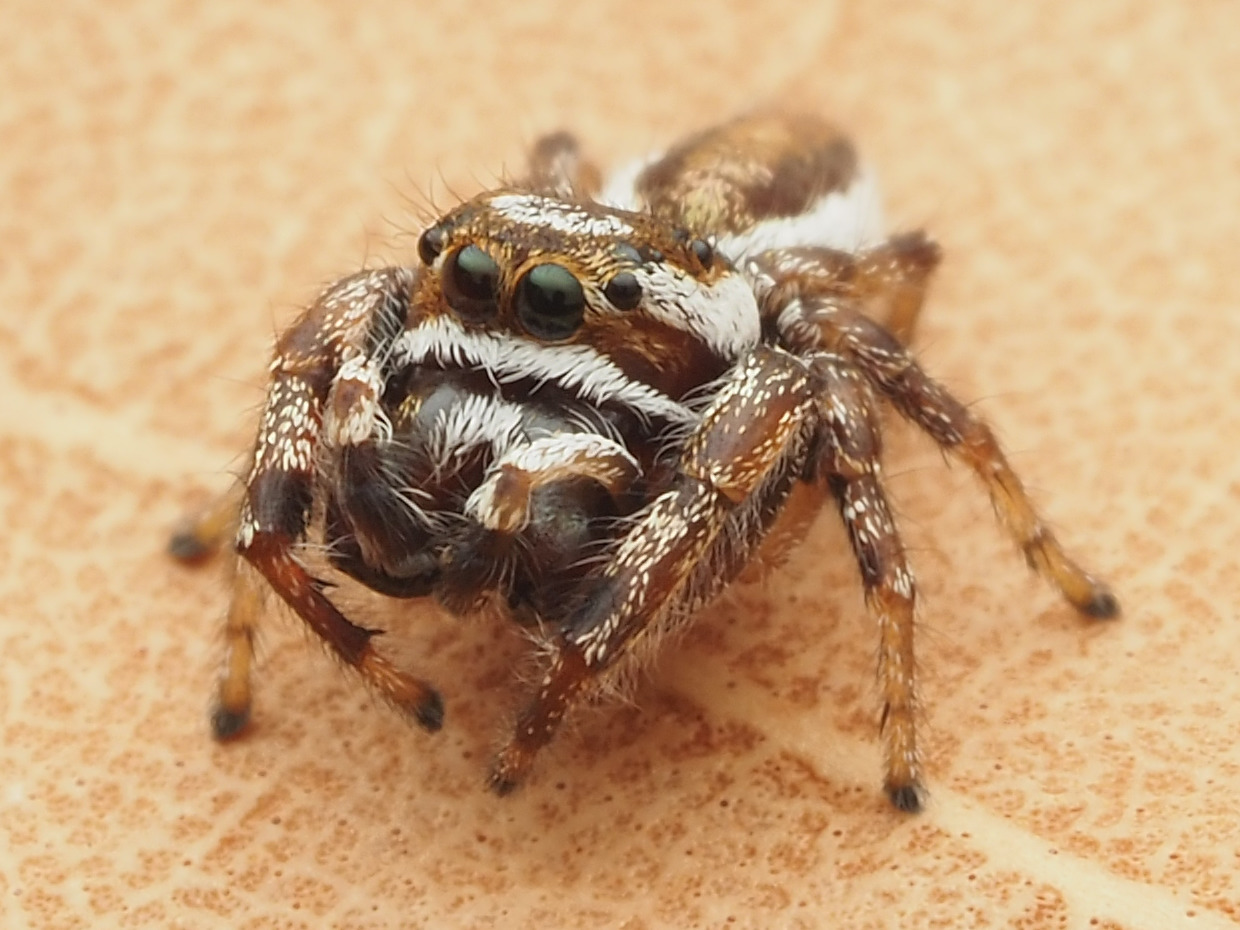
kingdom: Animalia
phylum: Arthropoda
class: Arachnida
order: Araneae
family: Salticidae
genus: Eris
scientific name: Eris flava
